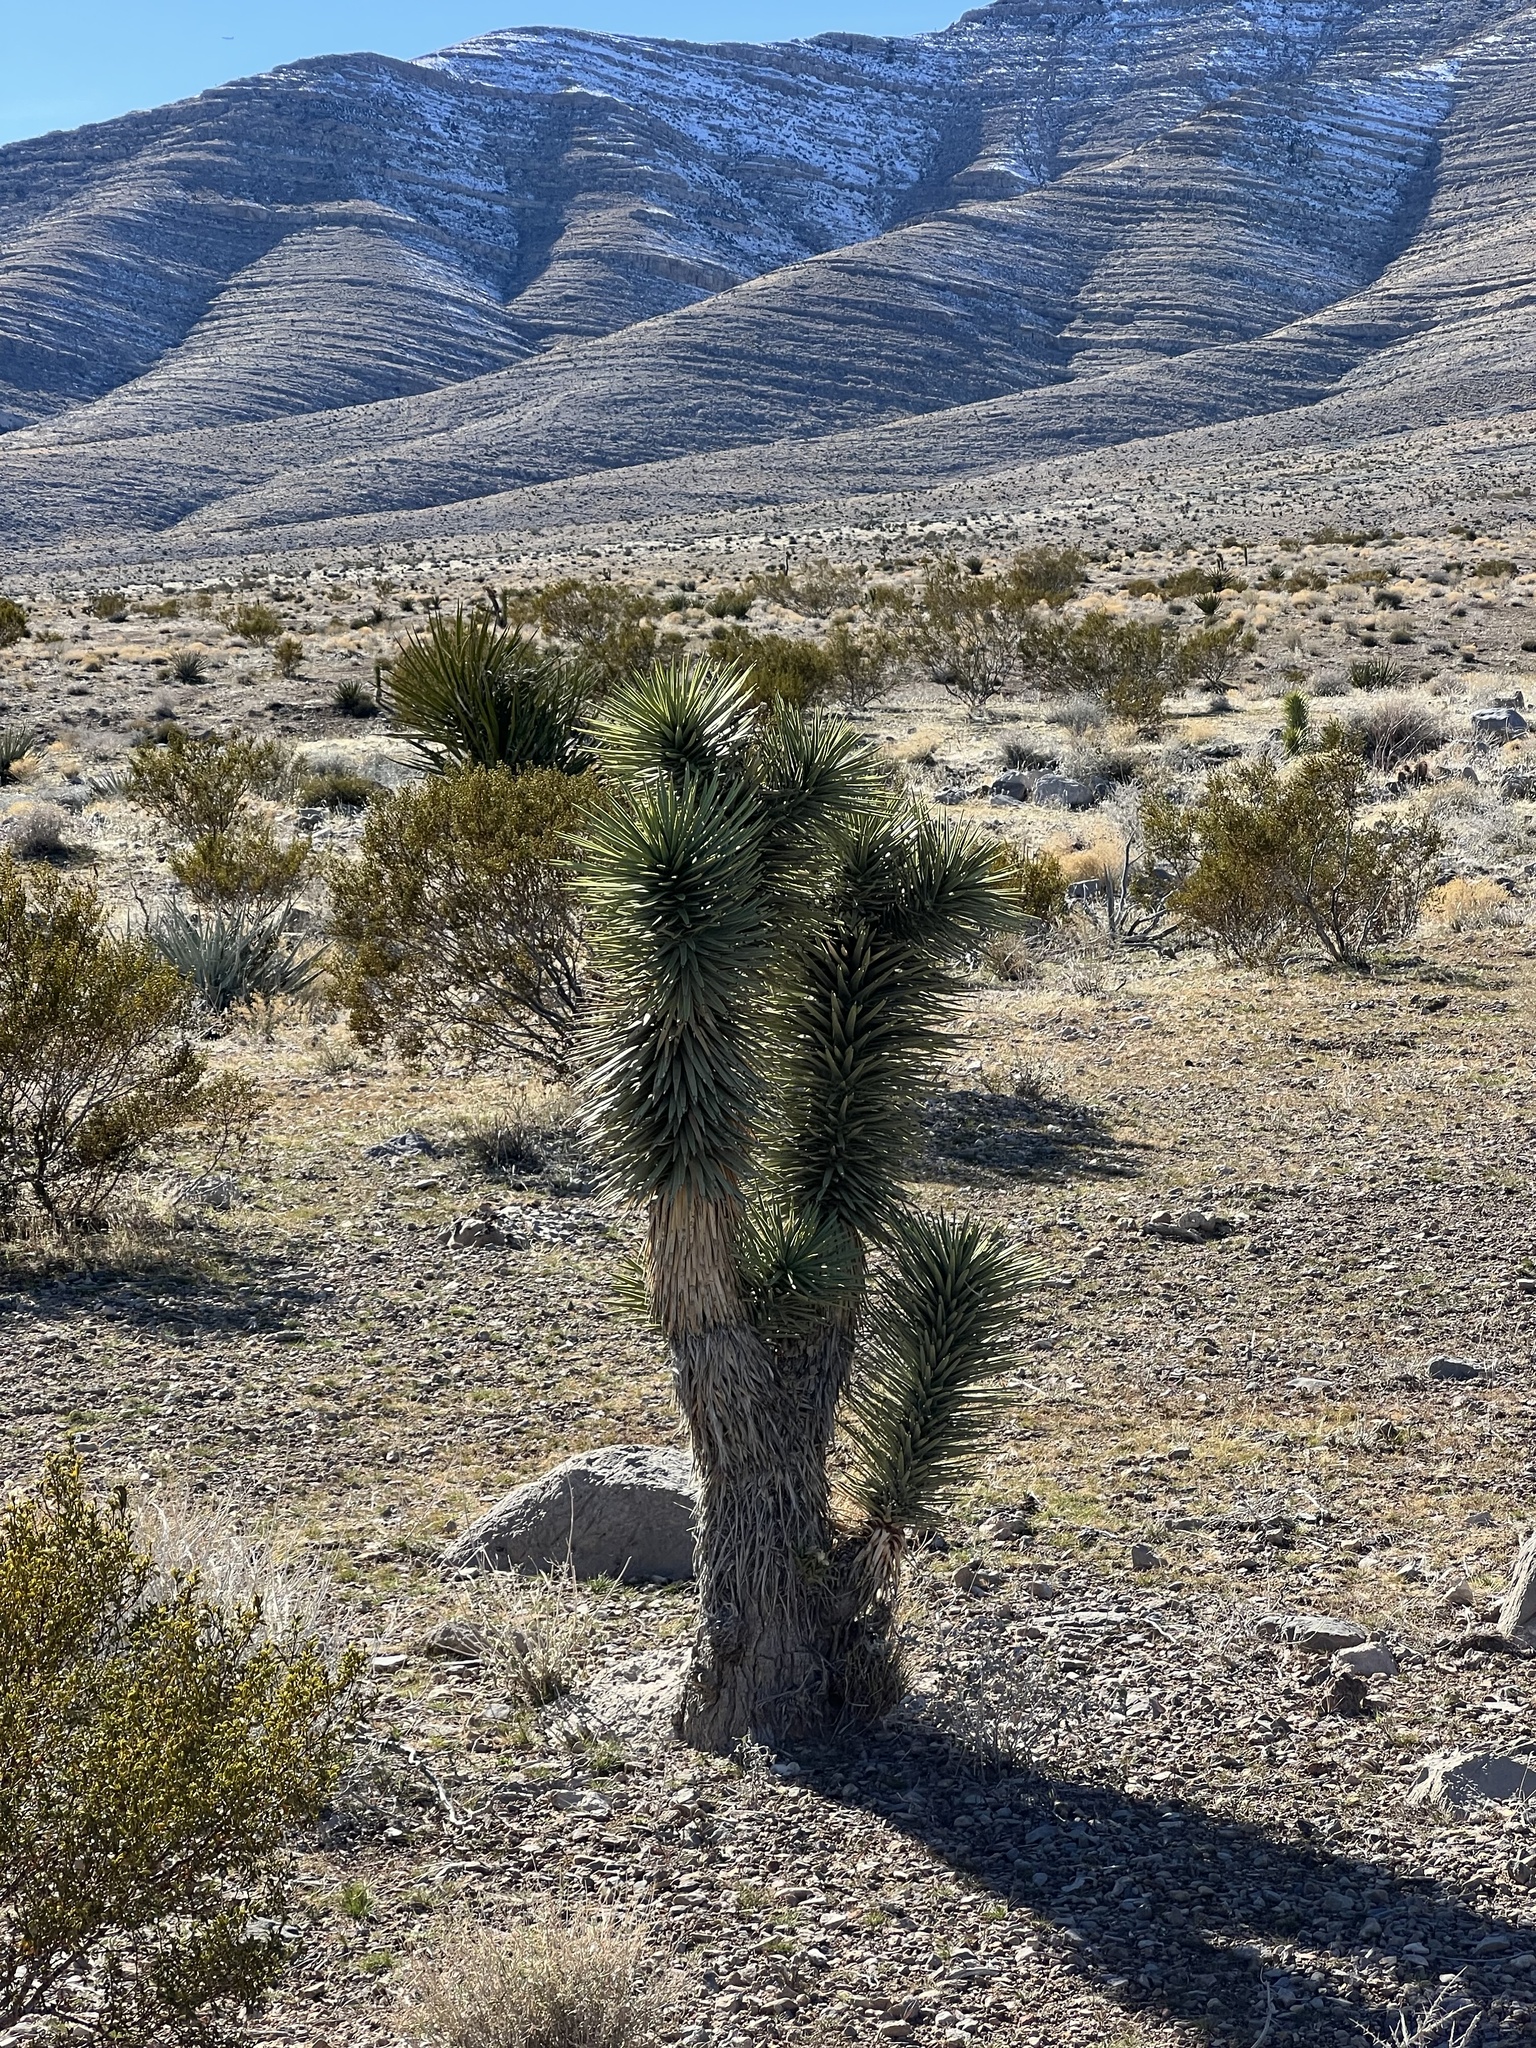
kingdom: Plantae
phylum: Tracheophyta
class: Liliopsida
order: Asparagales
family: Asparagaceae
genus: Yucca
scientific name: Yucca brevifolia
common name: Joshua tree
